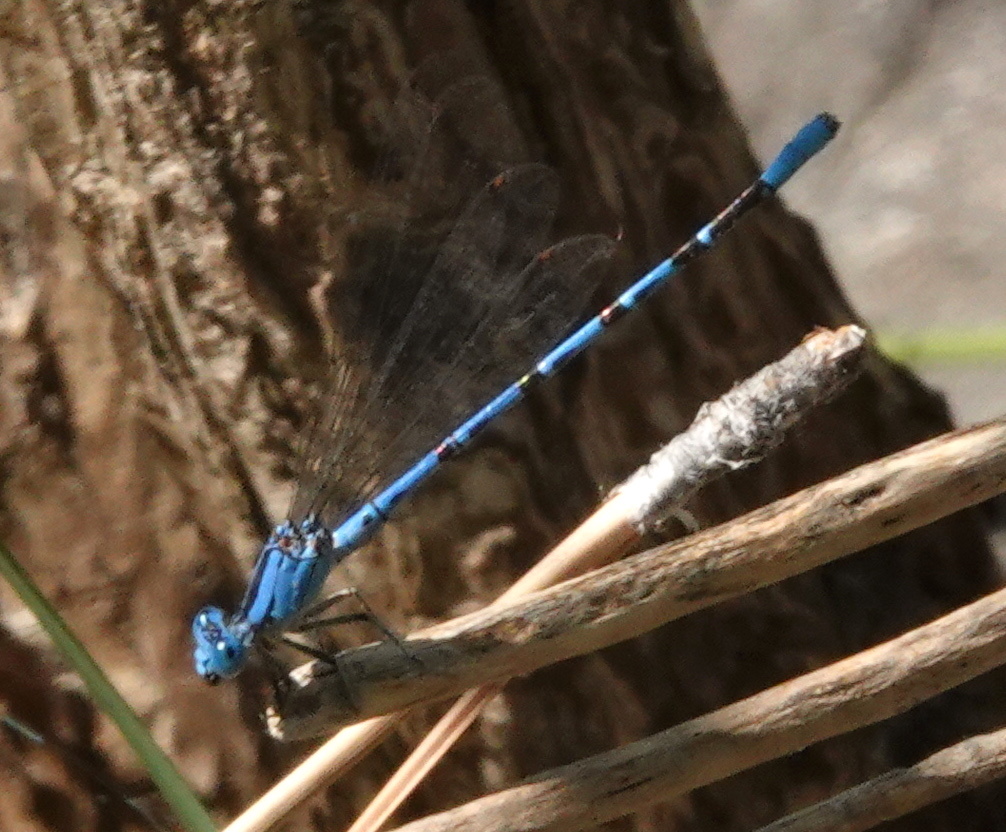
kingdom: Animalia
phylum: Arthropoda
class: Insecta
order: Odonata
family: Coenagrionidae
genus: Argia
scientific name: Argia vivida
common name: Vivid dancer
